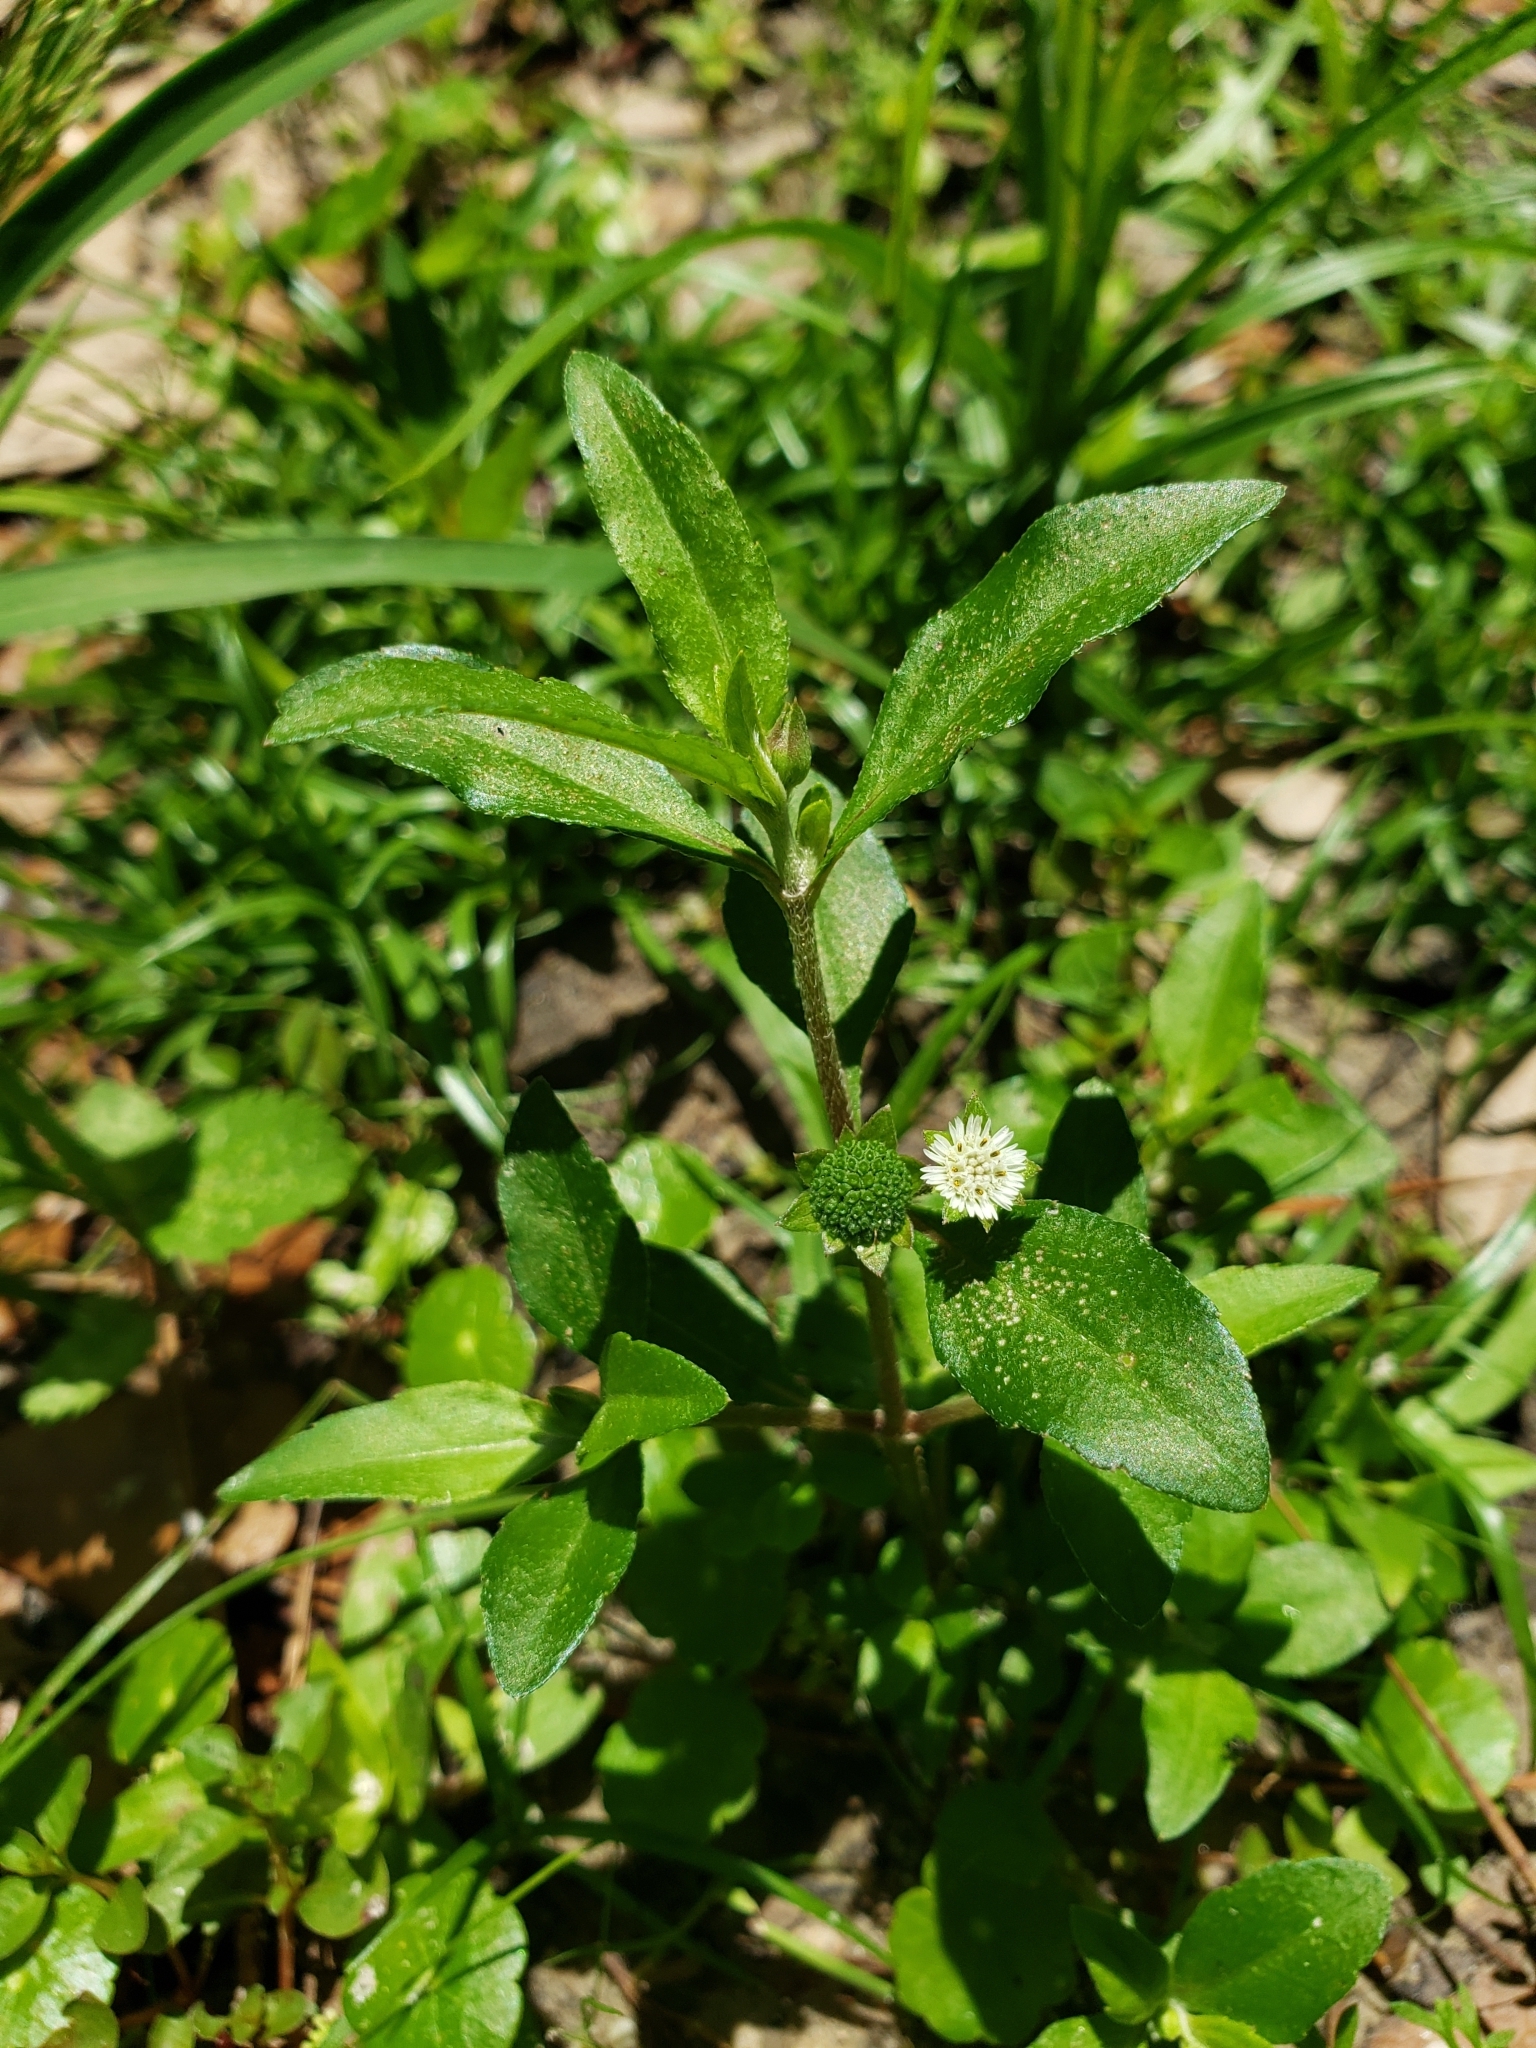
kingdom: Plantae
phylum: Tracheophyta
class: Magnoliopsida
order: Asterales
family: Asteraceae
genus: Eclipta
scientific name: Eclipta prostrata
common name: False daisy
